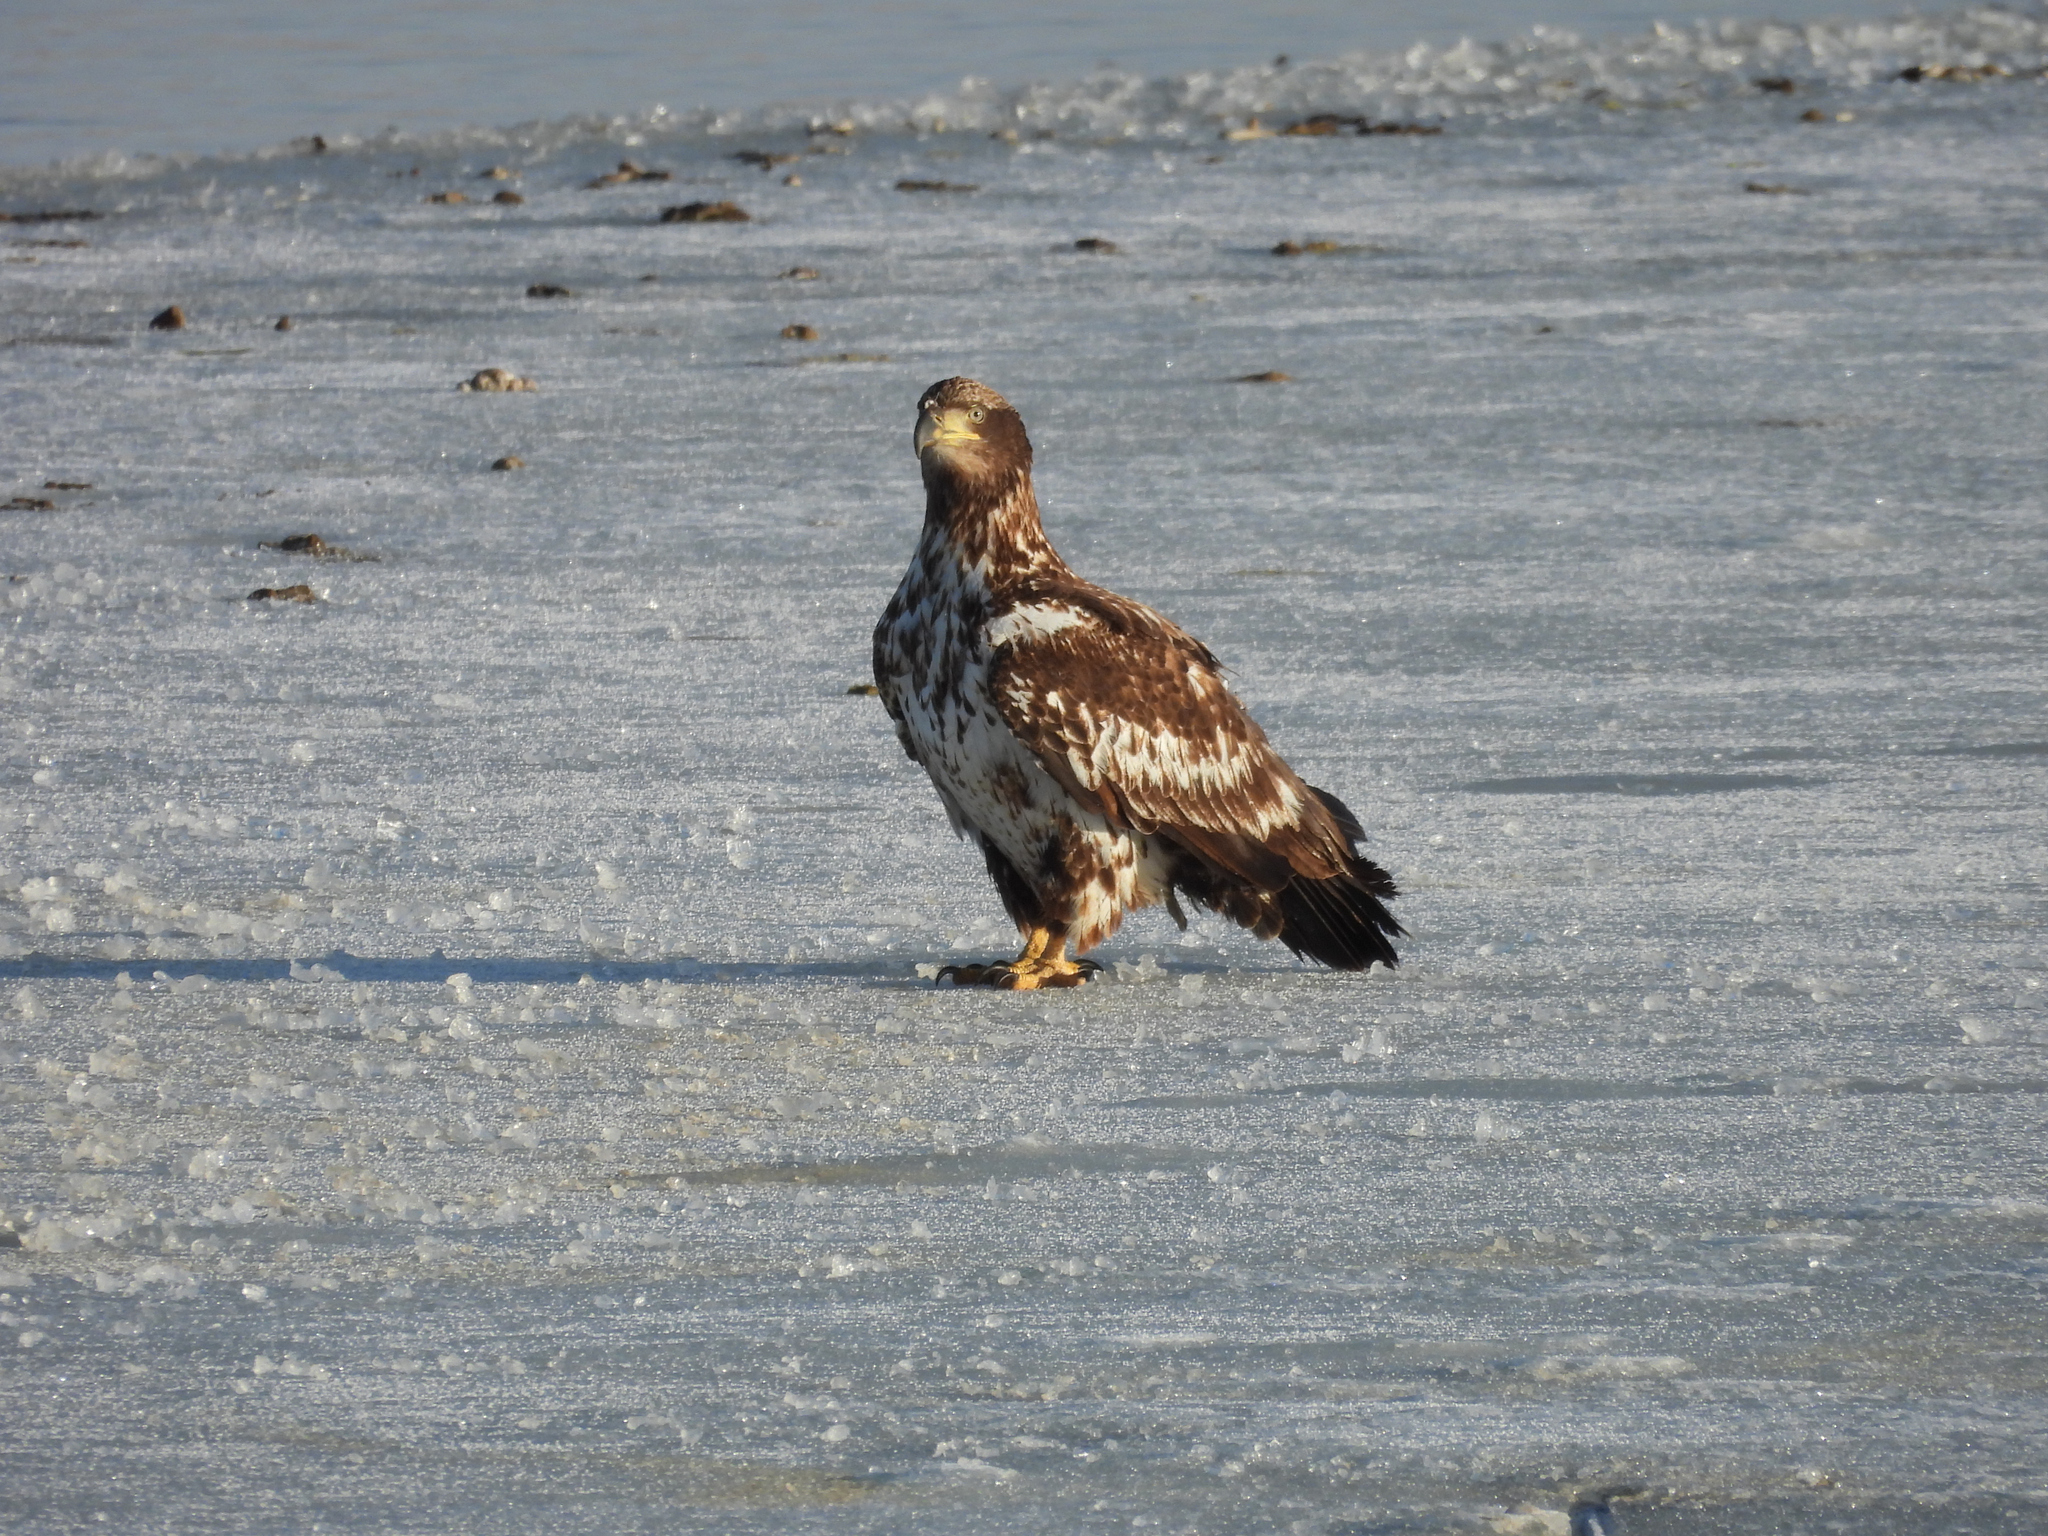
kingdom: Animalia
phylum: Chordata
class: Aves
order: Accipitriformes
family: Accipitridae
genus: Haliaeetus
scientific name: Haliaeetus leucocephalus
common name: Bald eagle
